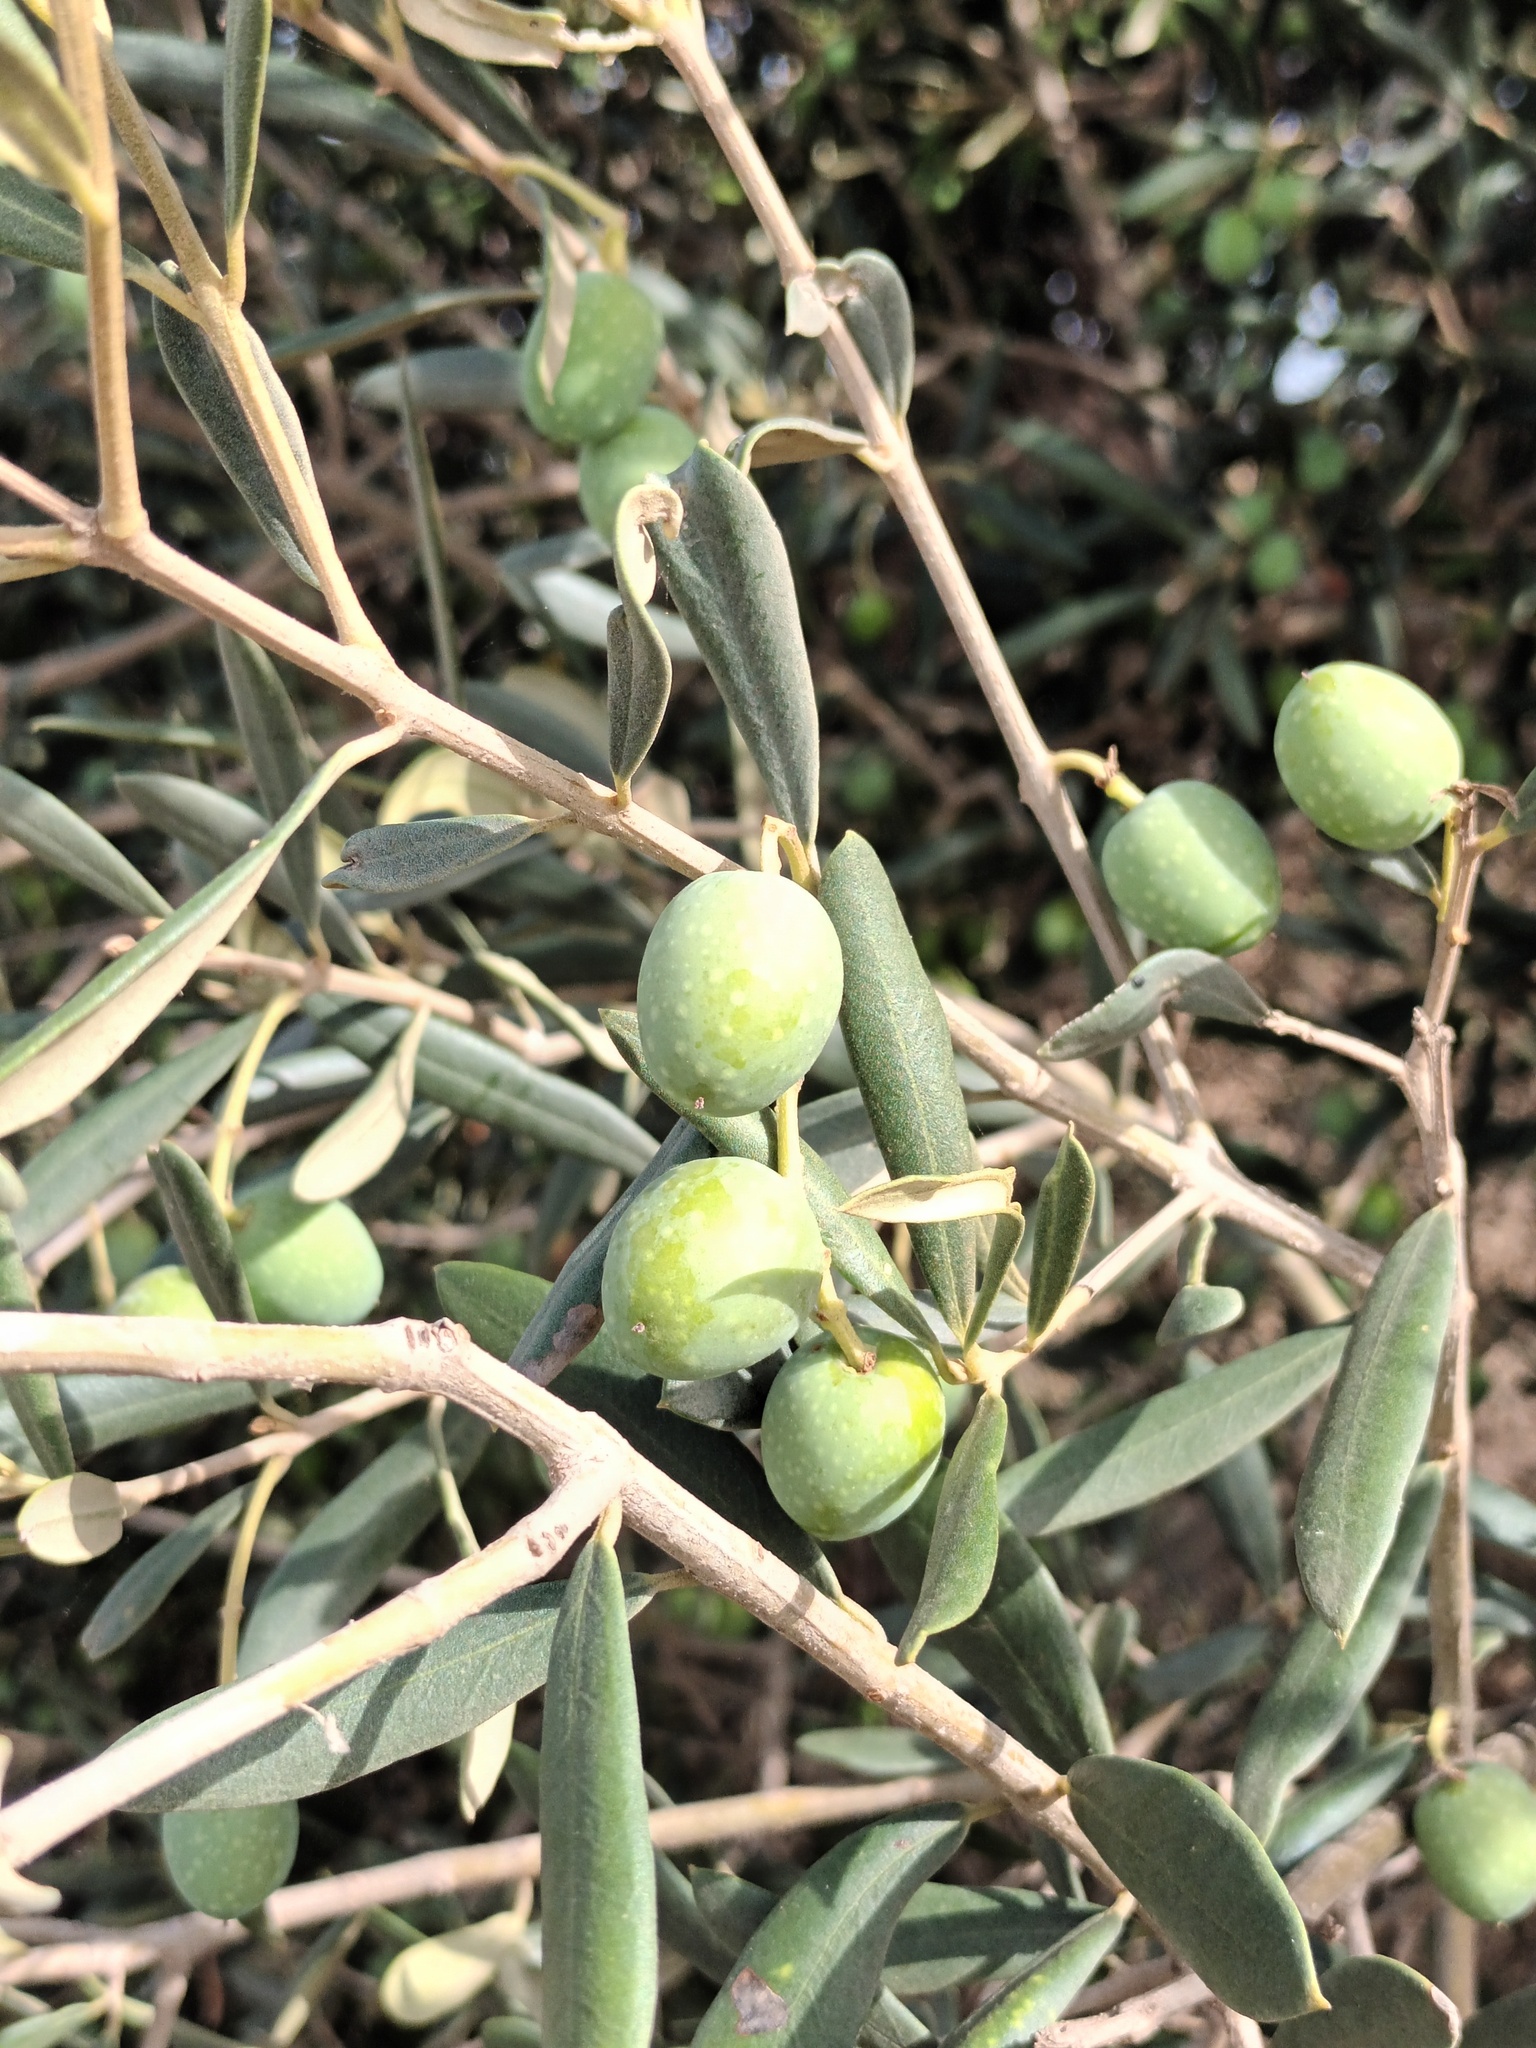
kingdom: Plantae
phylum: Tracheophyta
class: Magnoliopsida
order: Lamiales
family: Oleaceae
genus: Olea
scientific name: Olea europaea
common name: Olive
